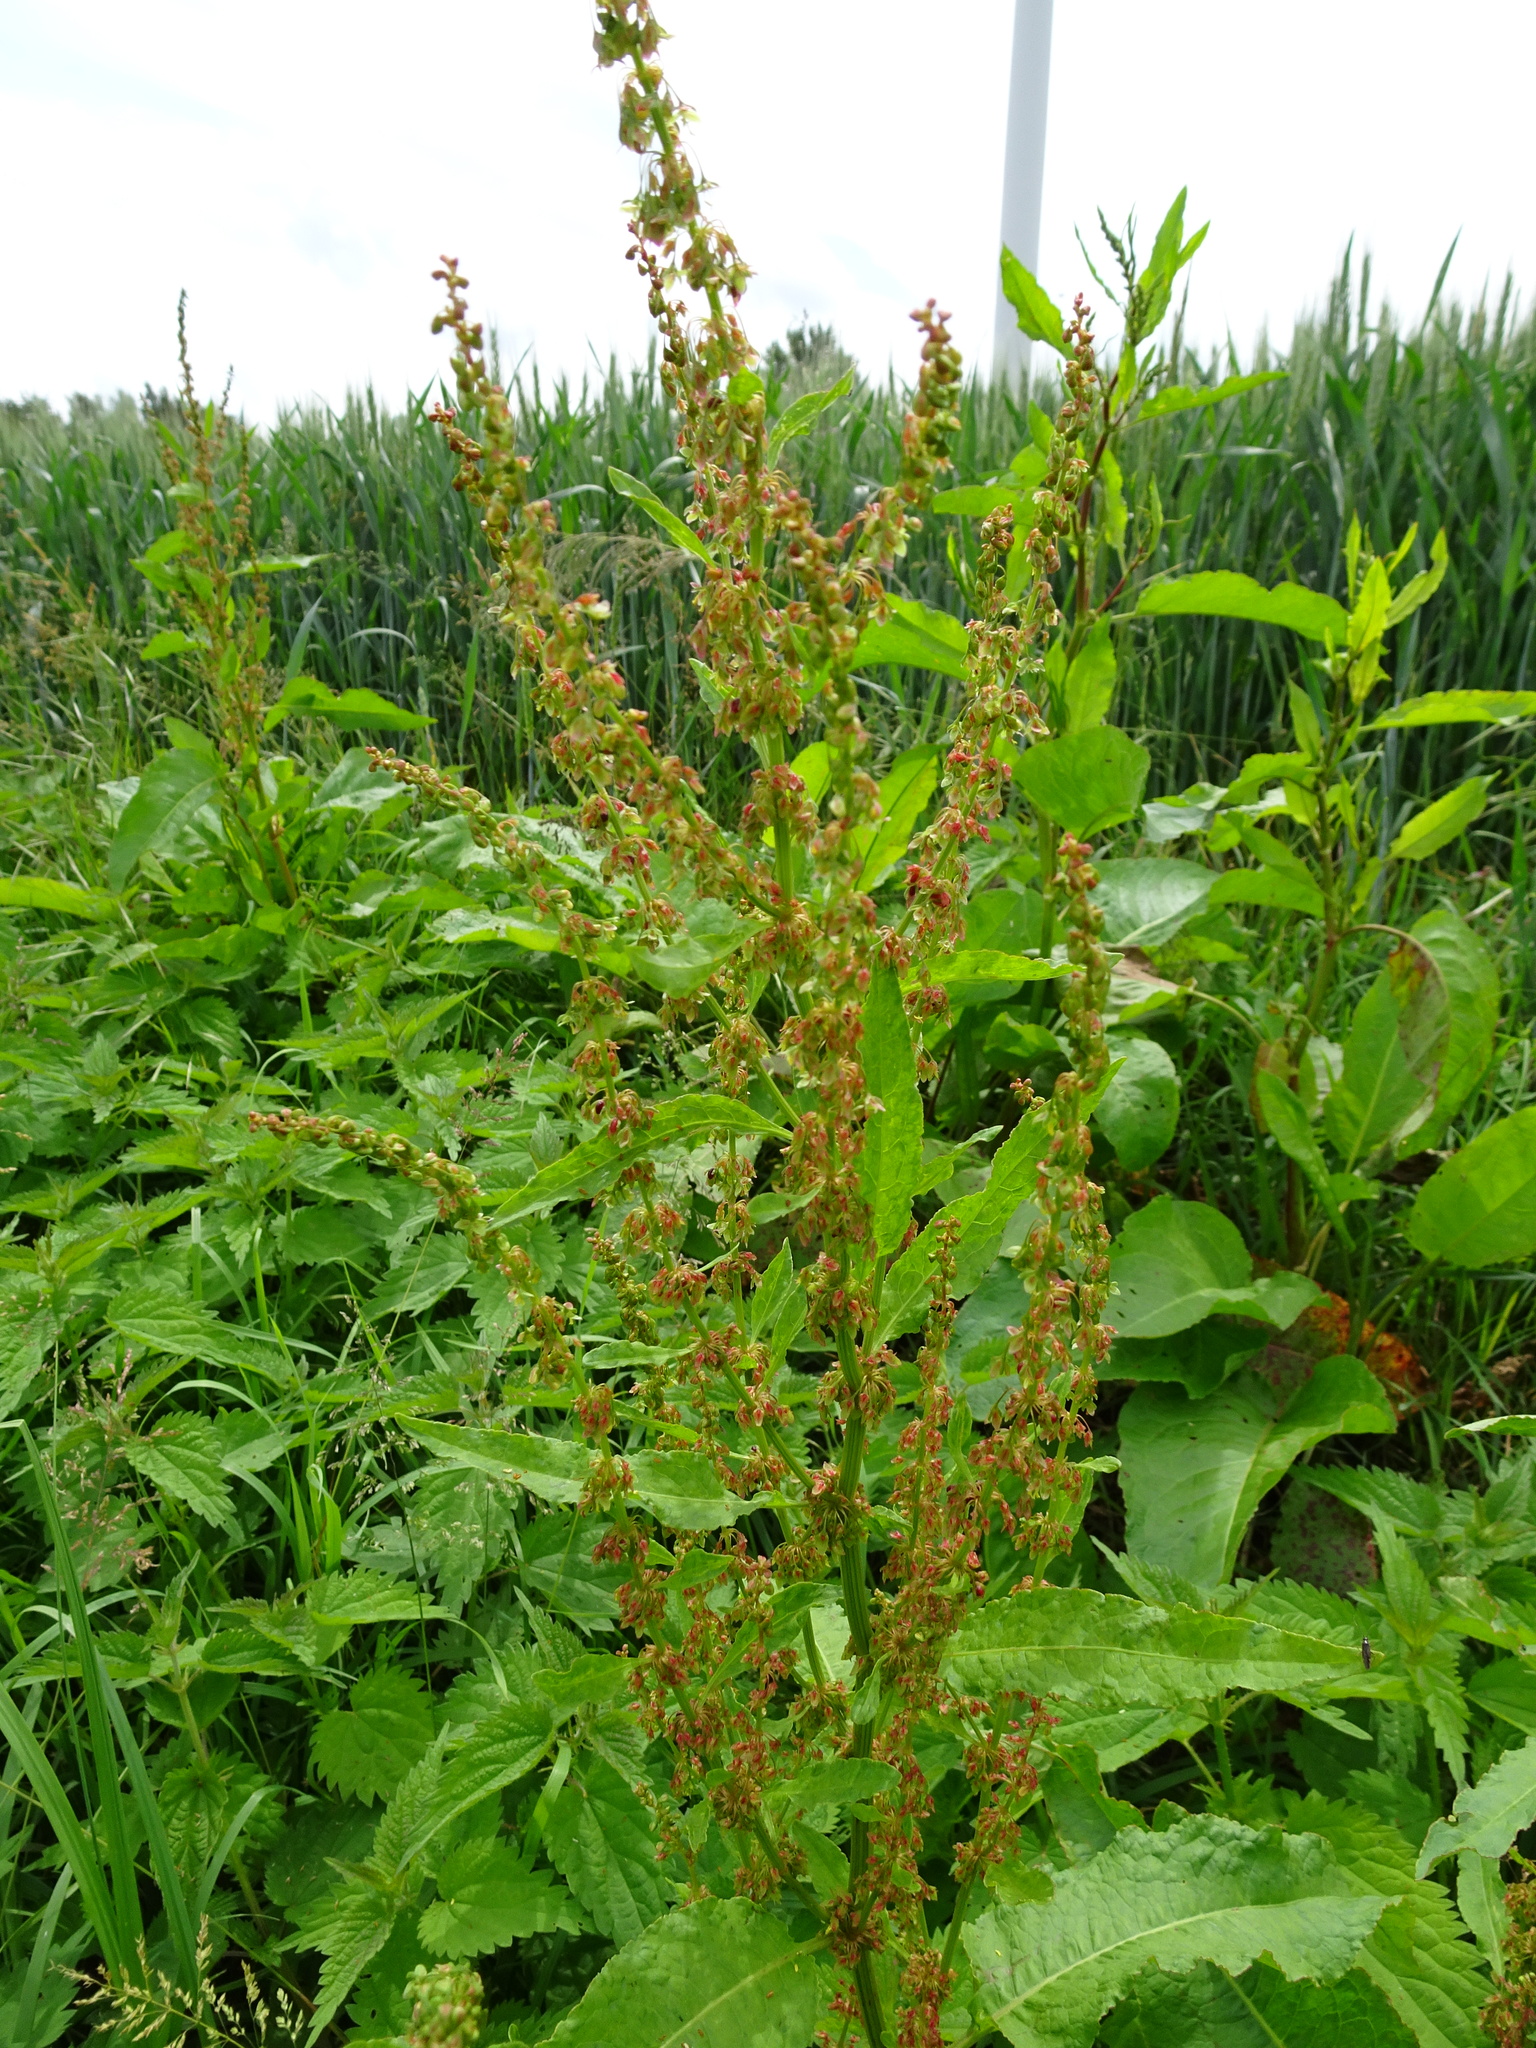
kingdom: Plantae
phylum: Tracheophyta
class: Magnoliopsida
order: Caryophyllales
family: Polygonaceae
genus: Rumex
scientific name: Rumex obtusifolius
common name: Bitter dock
